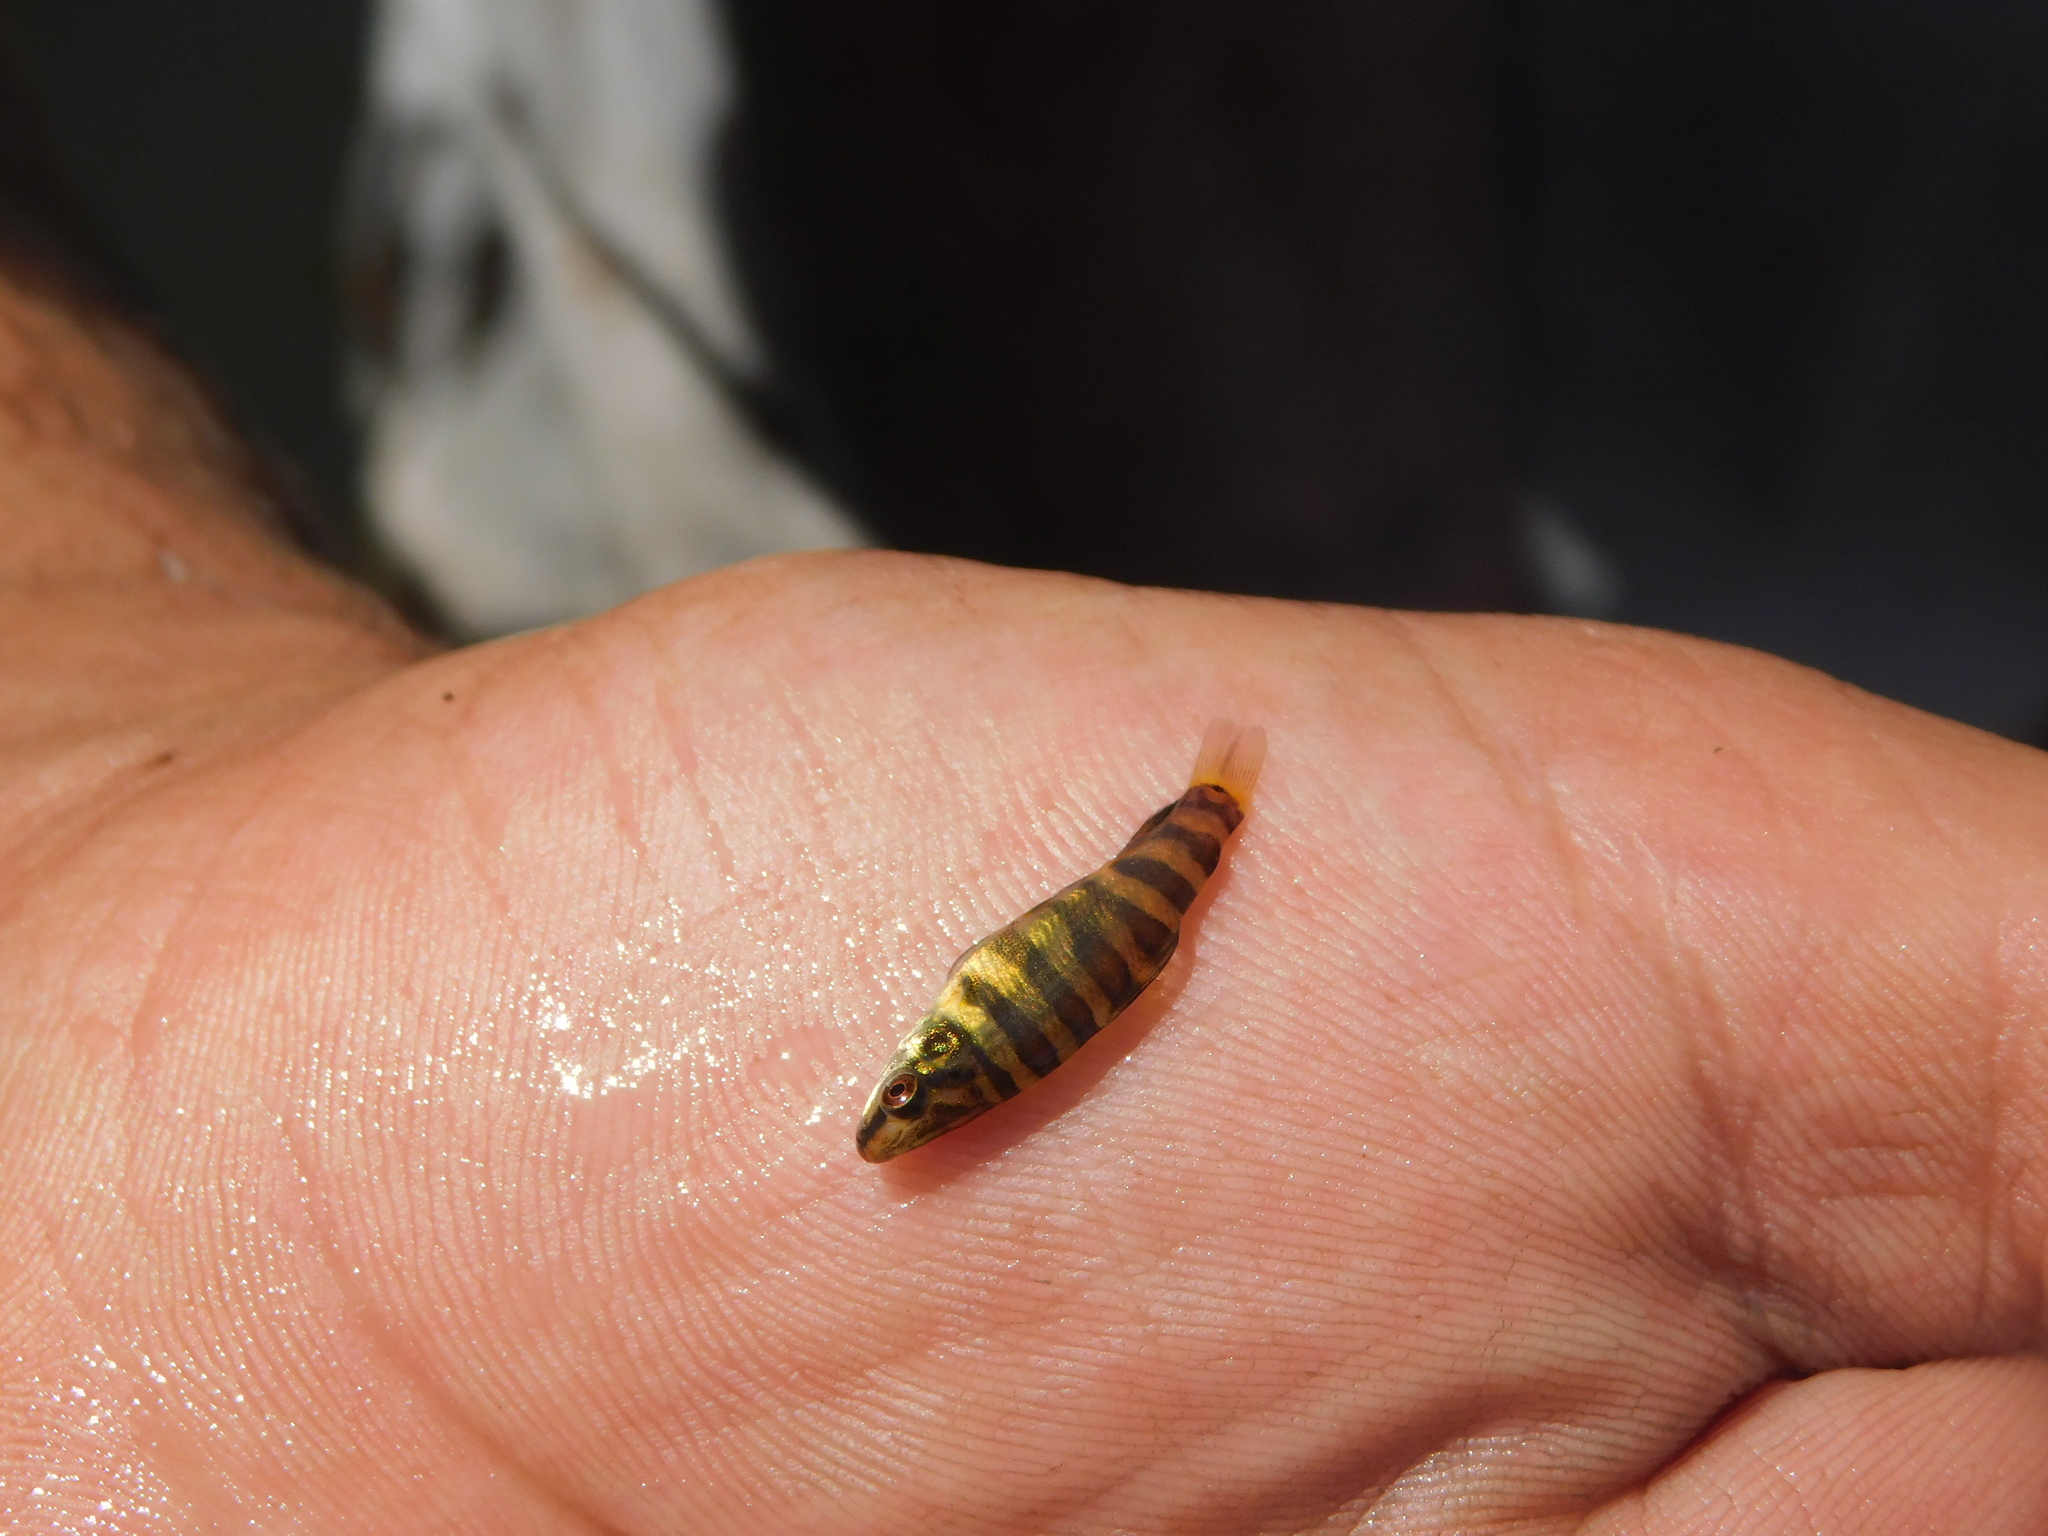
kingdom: Animalia
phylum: Chordata
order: Characiformes
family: Anostomidae
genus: Leporinus
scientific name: Leporinus obtusidens
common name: Characin
